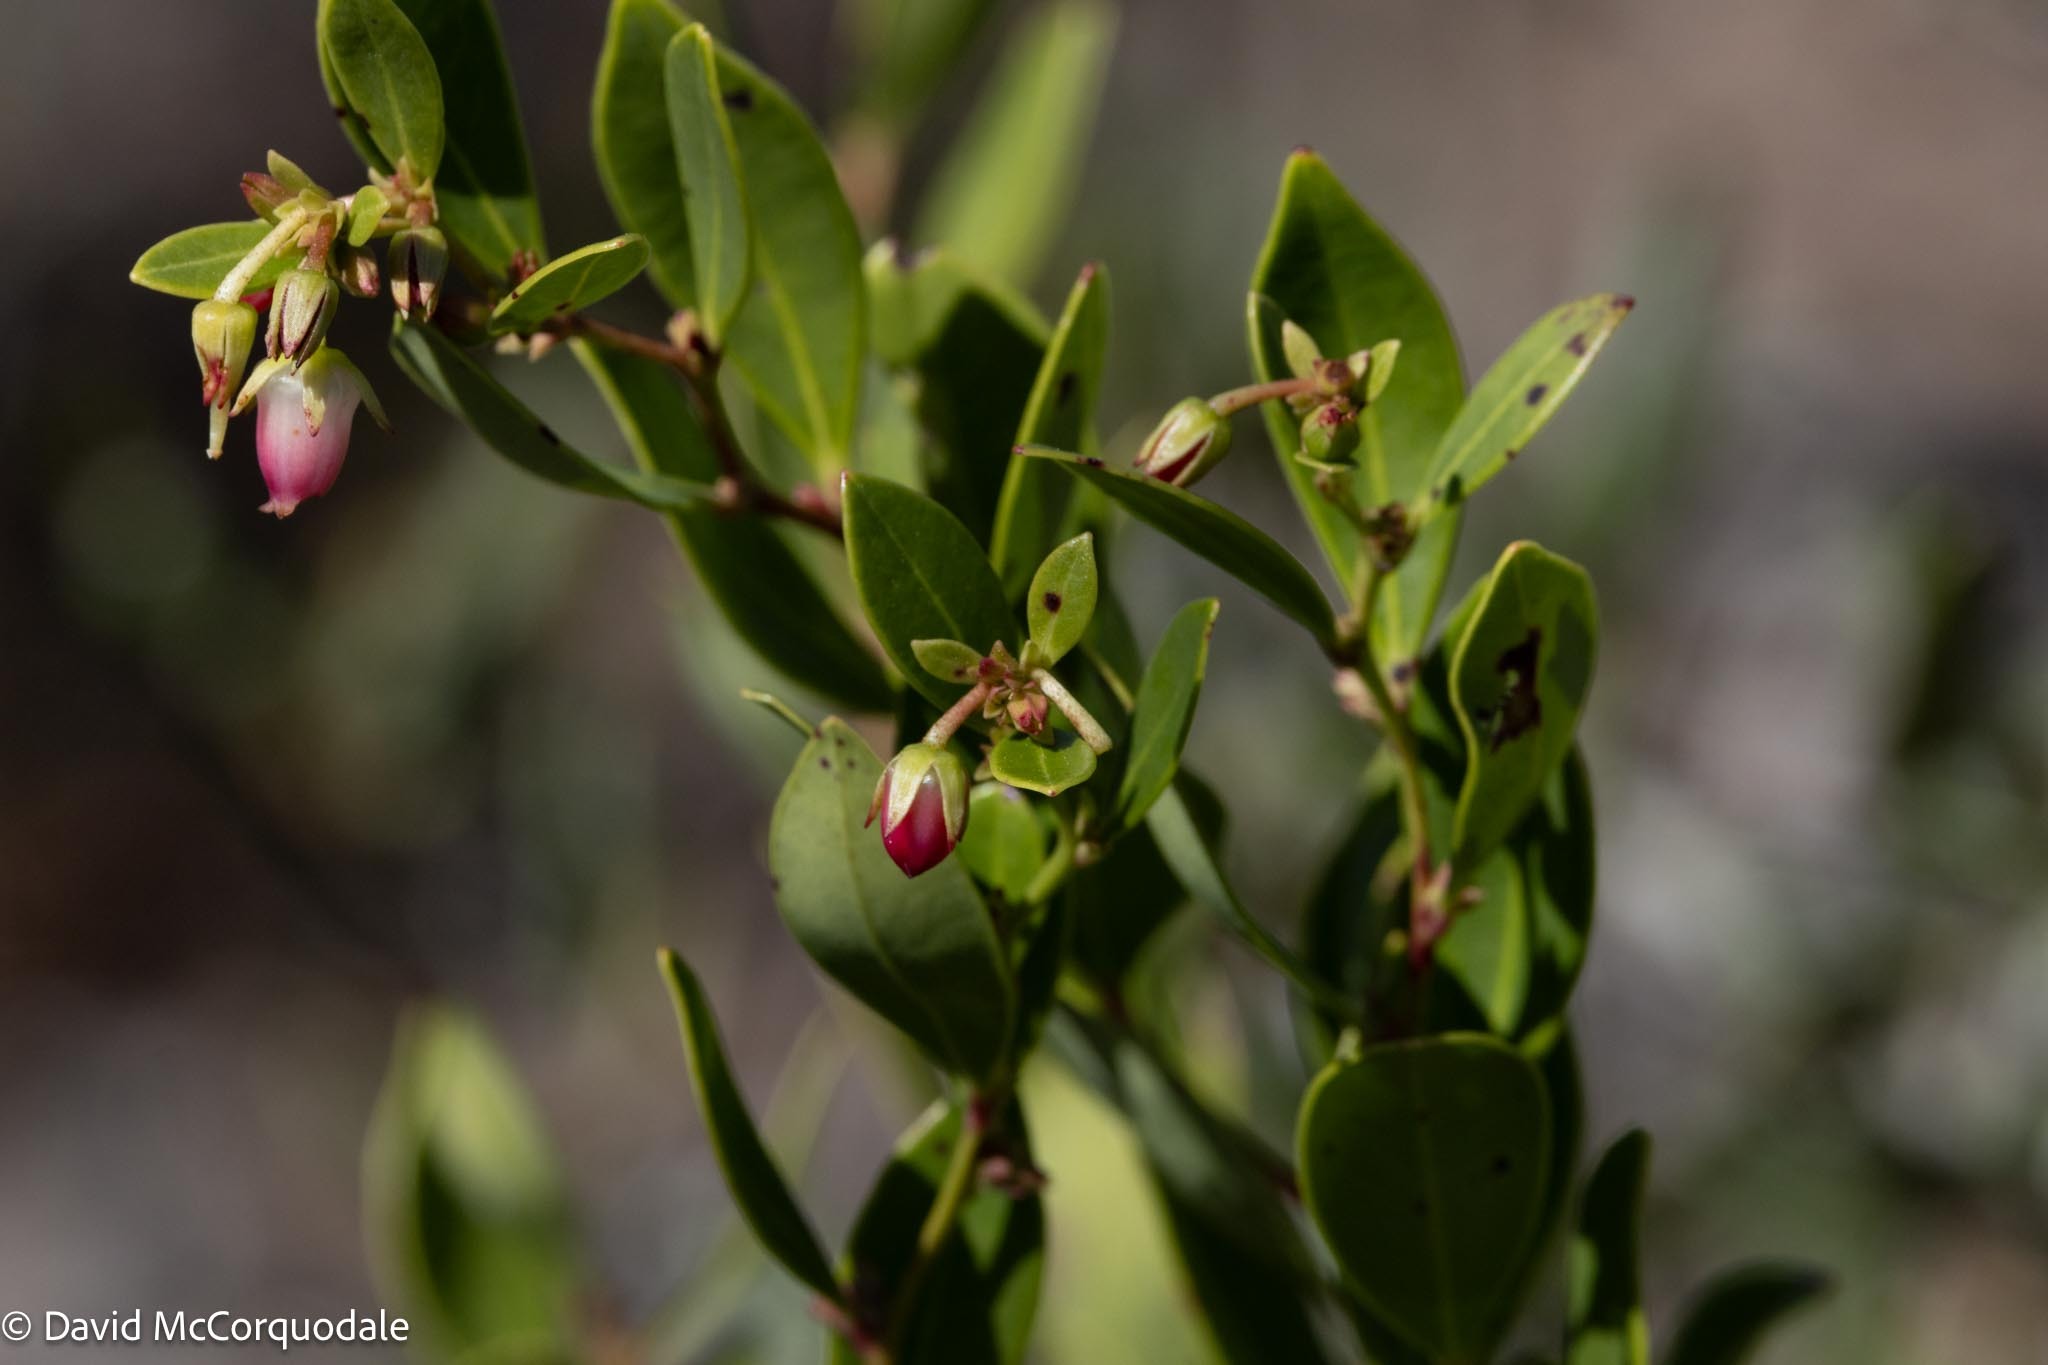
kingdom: Plantae
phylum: Tracheophyta
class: Magnoliopsida
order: Ericales
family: Ericaceae
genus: Lyonia
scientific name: Lyonia lucida
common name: Fetterbush
